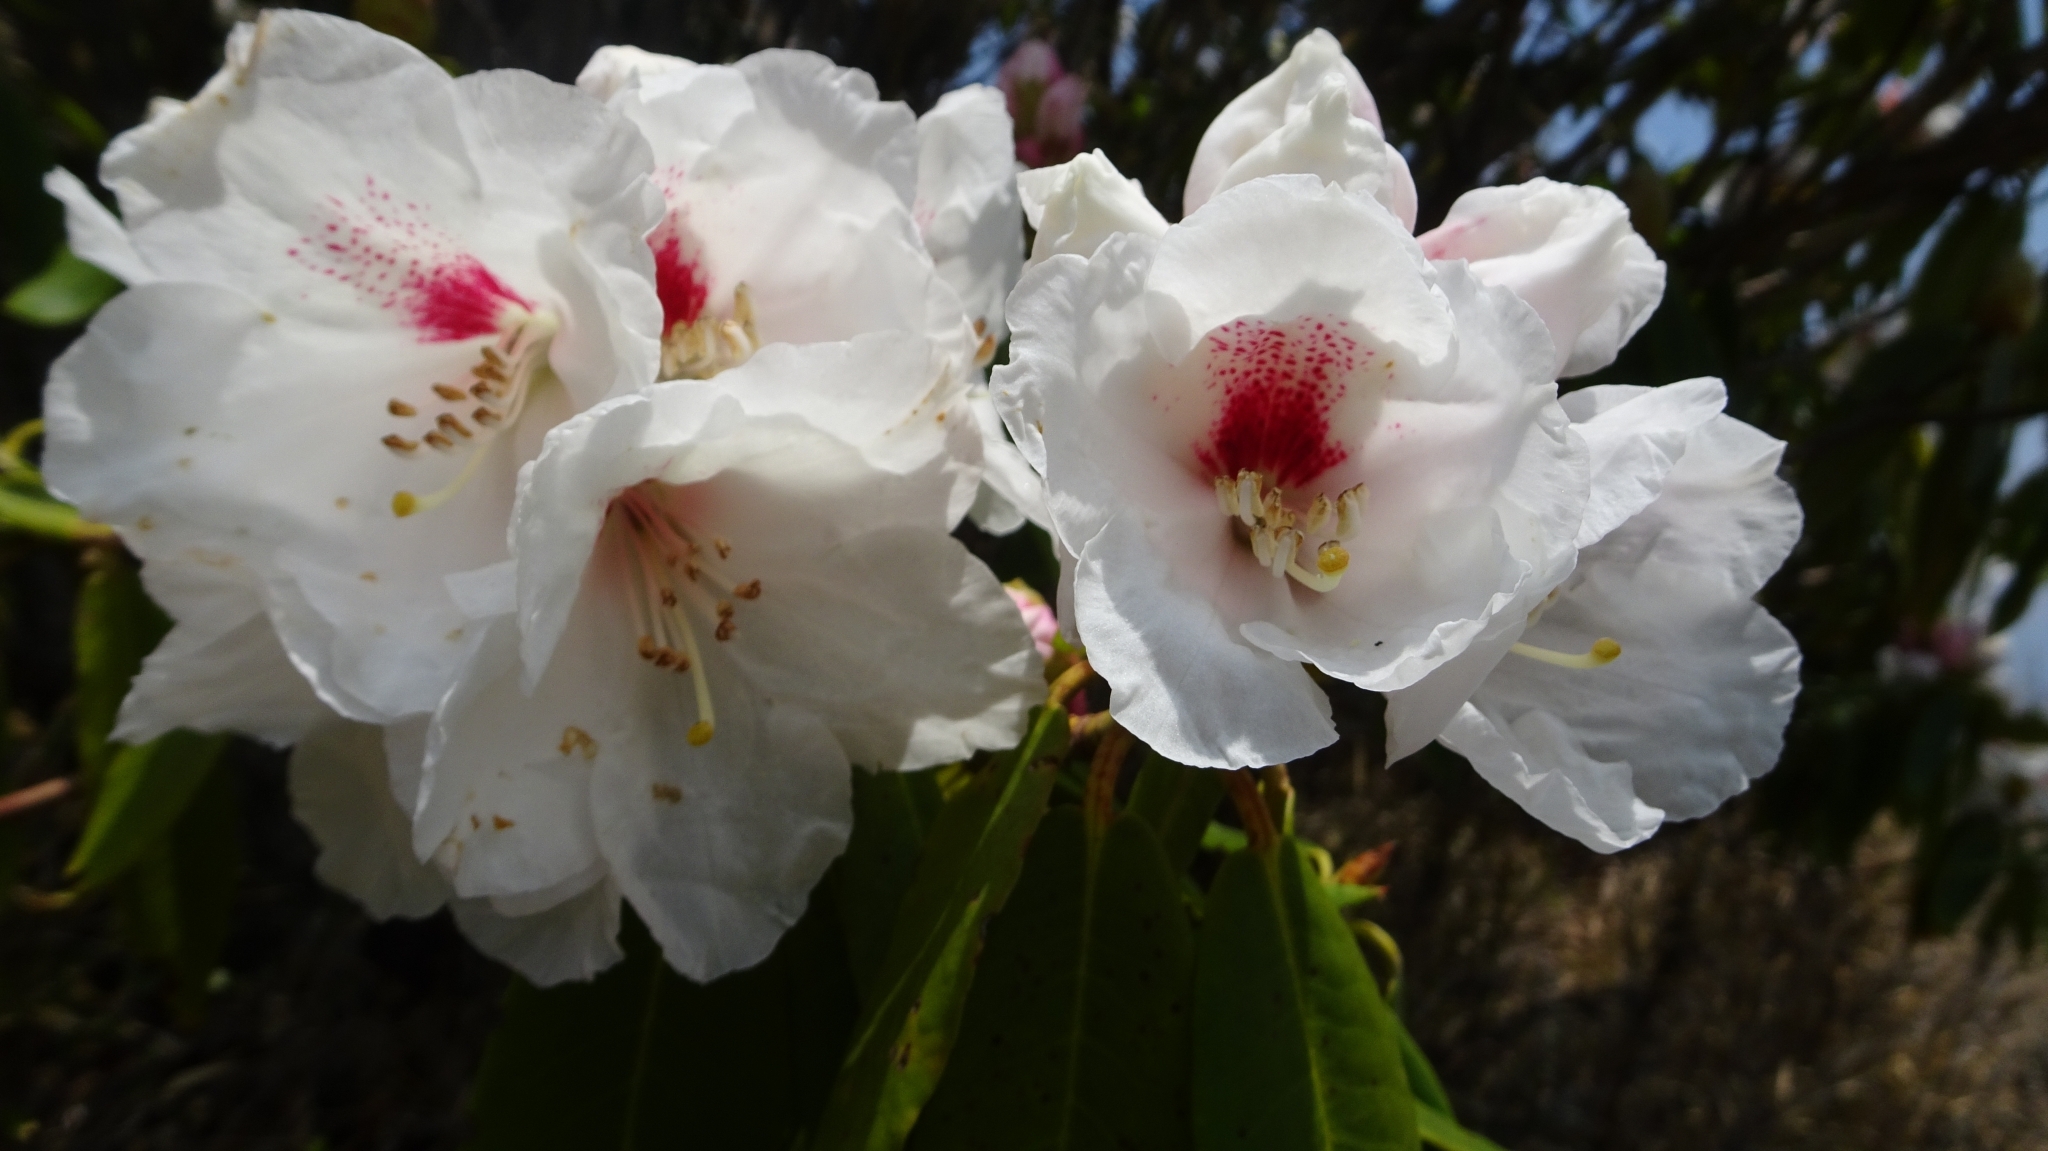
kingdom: Plantae
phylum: Tracheophyta
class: Magnoliopsida
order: Ericales
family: Ericaceae
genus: Rhododendron
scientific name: Rhododendron pseudochrysanthum
